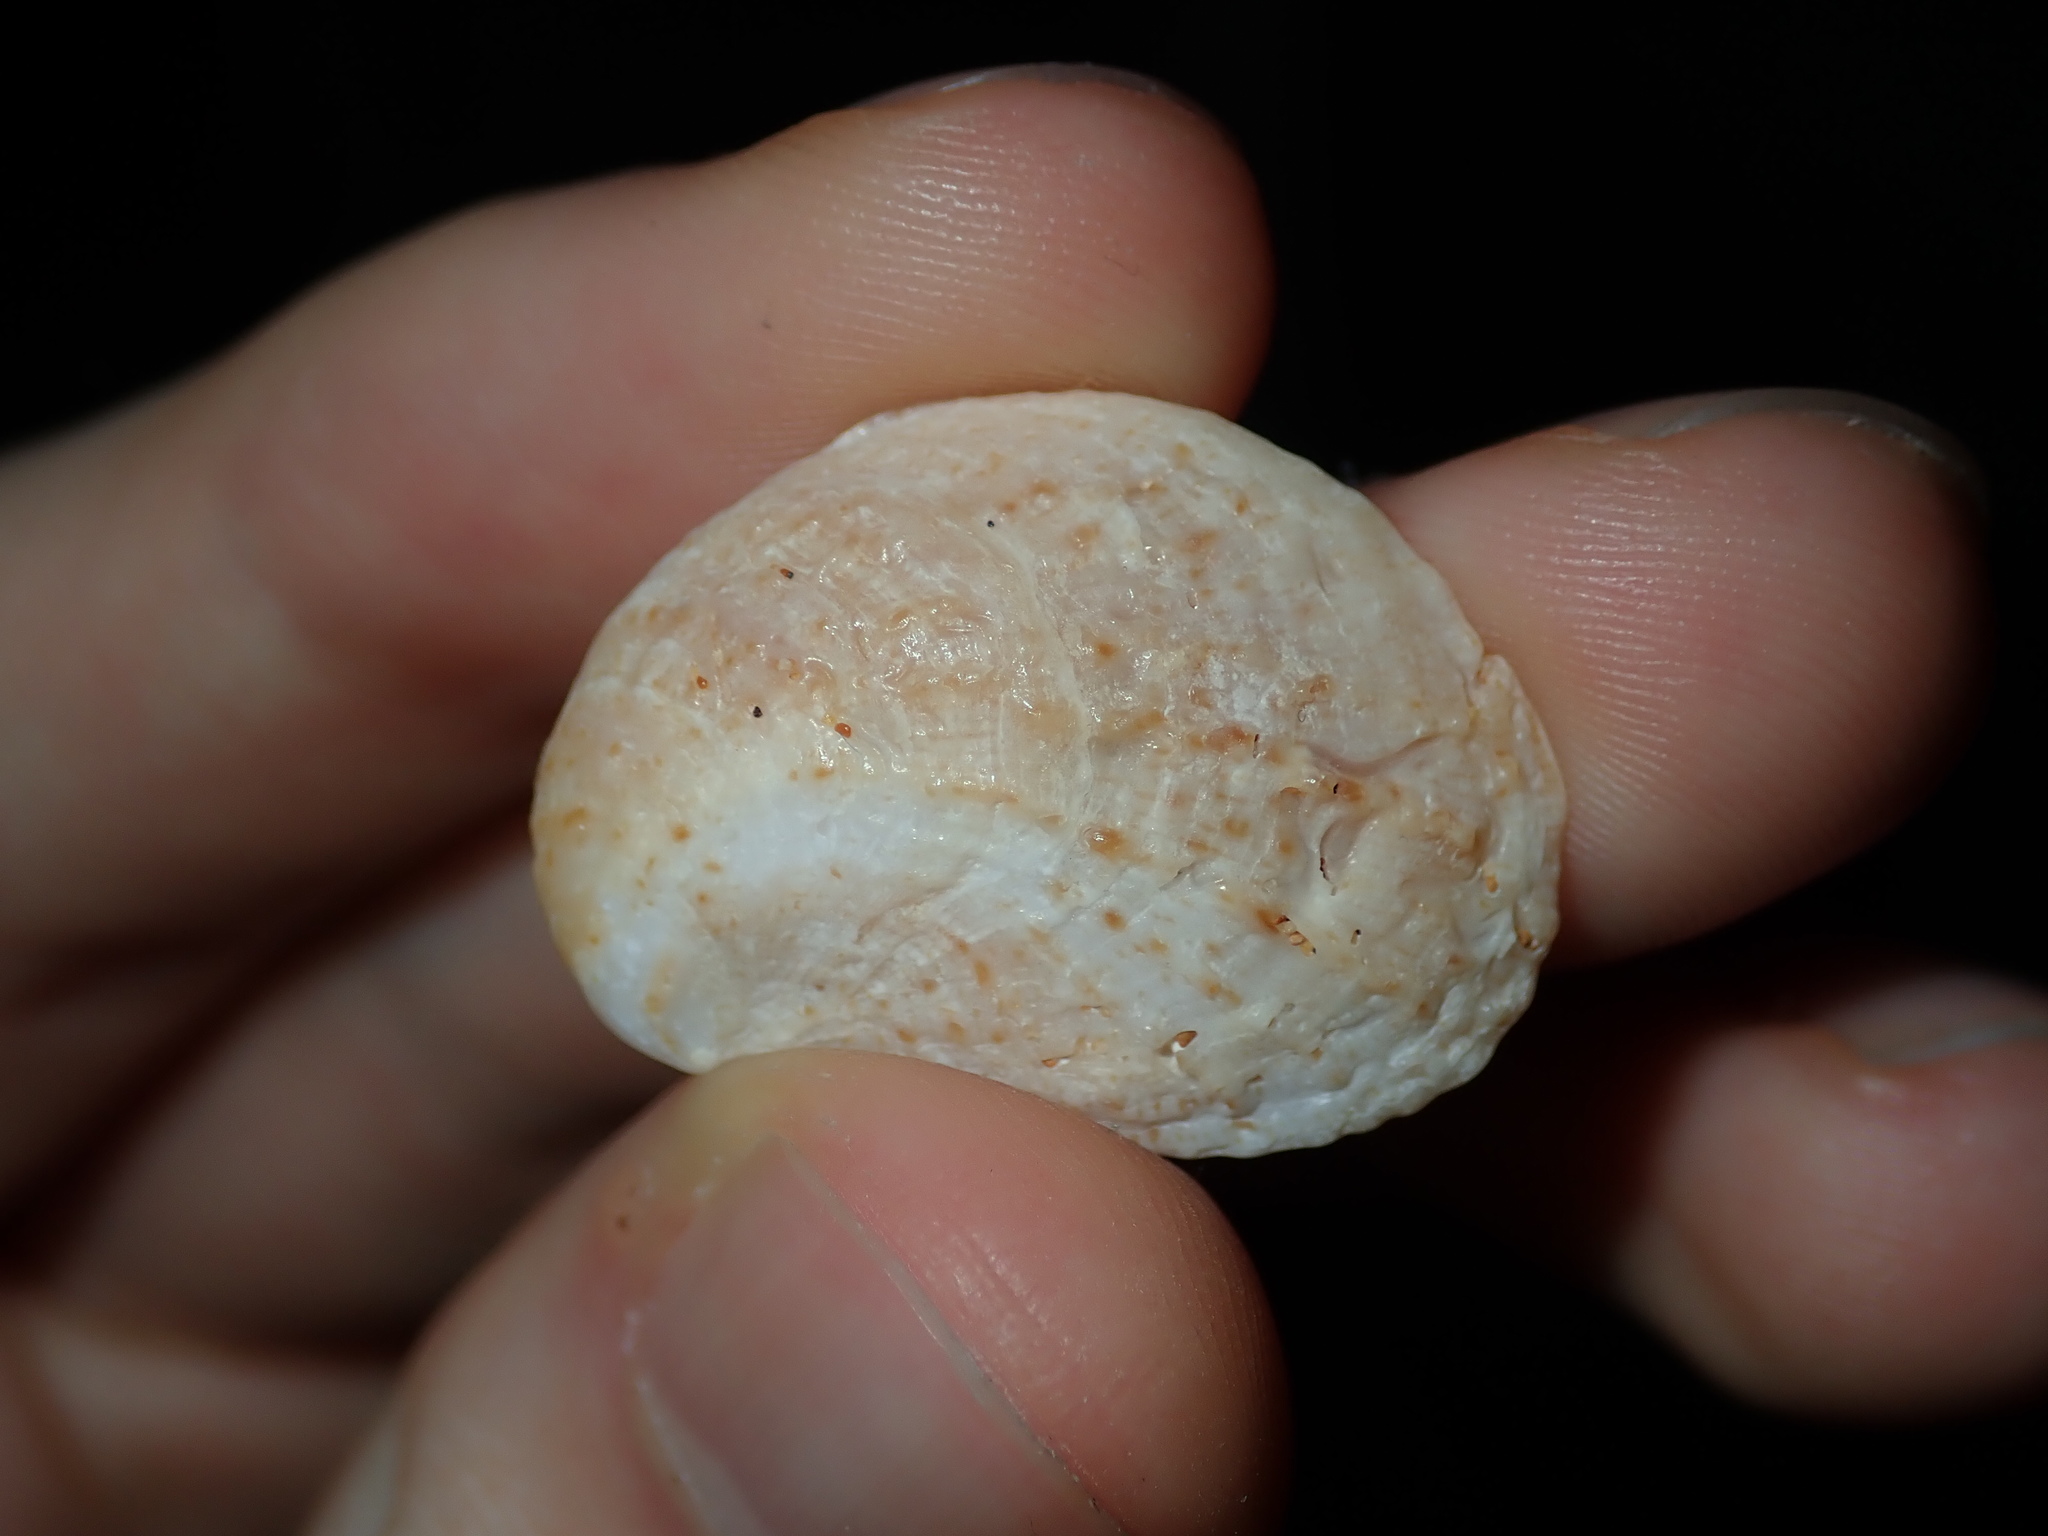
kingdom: Animalia
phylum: Mollusca
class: Gastropoda
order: Littorinimorpha
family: Calyptraeidae
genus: Bostrycapulus
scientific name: Bostrycapulus pritzkeri
